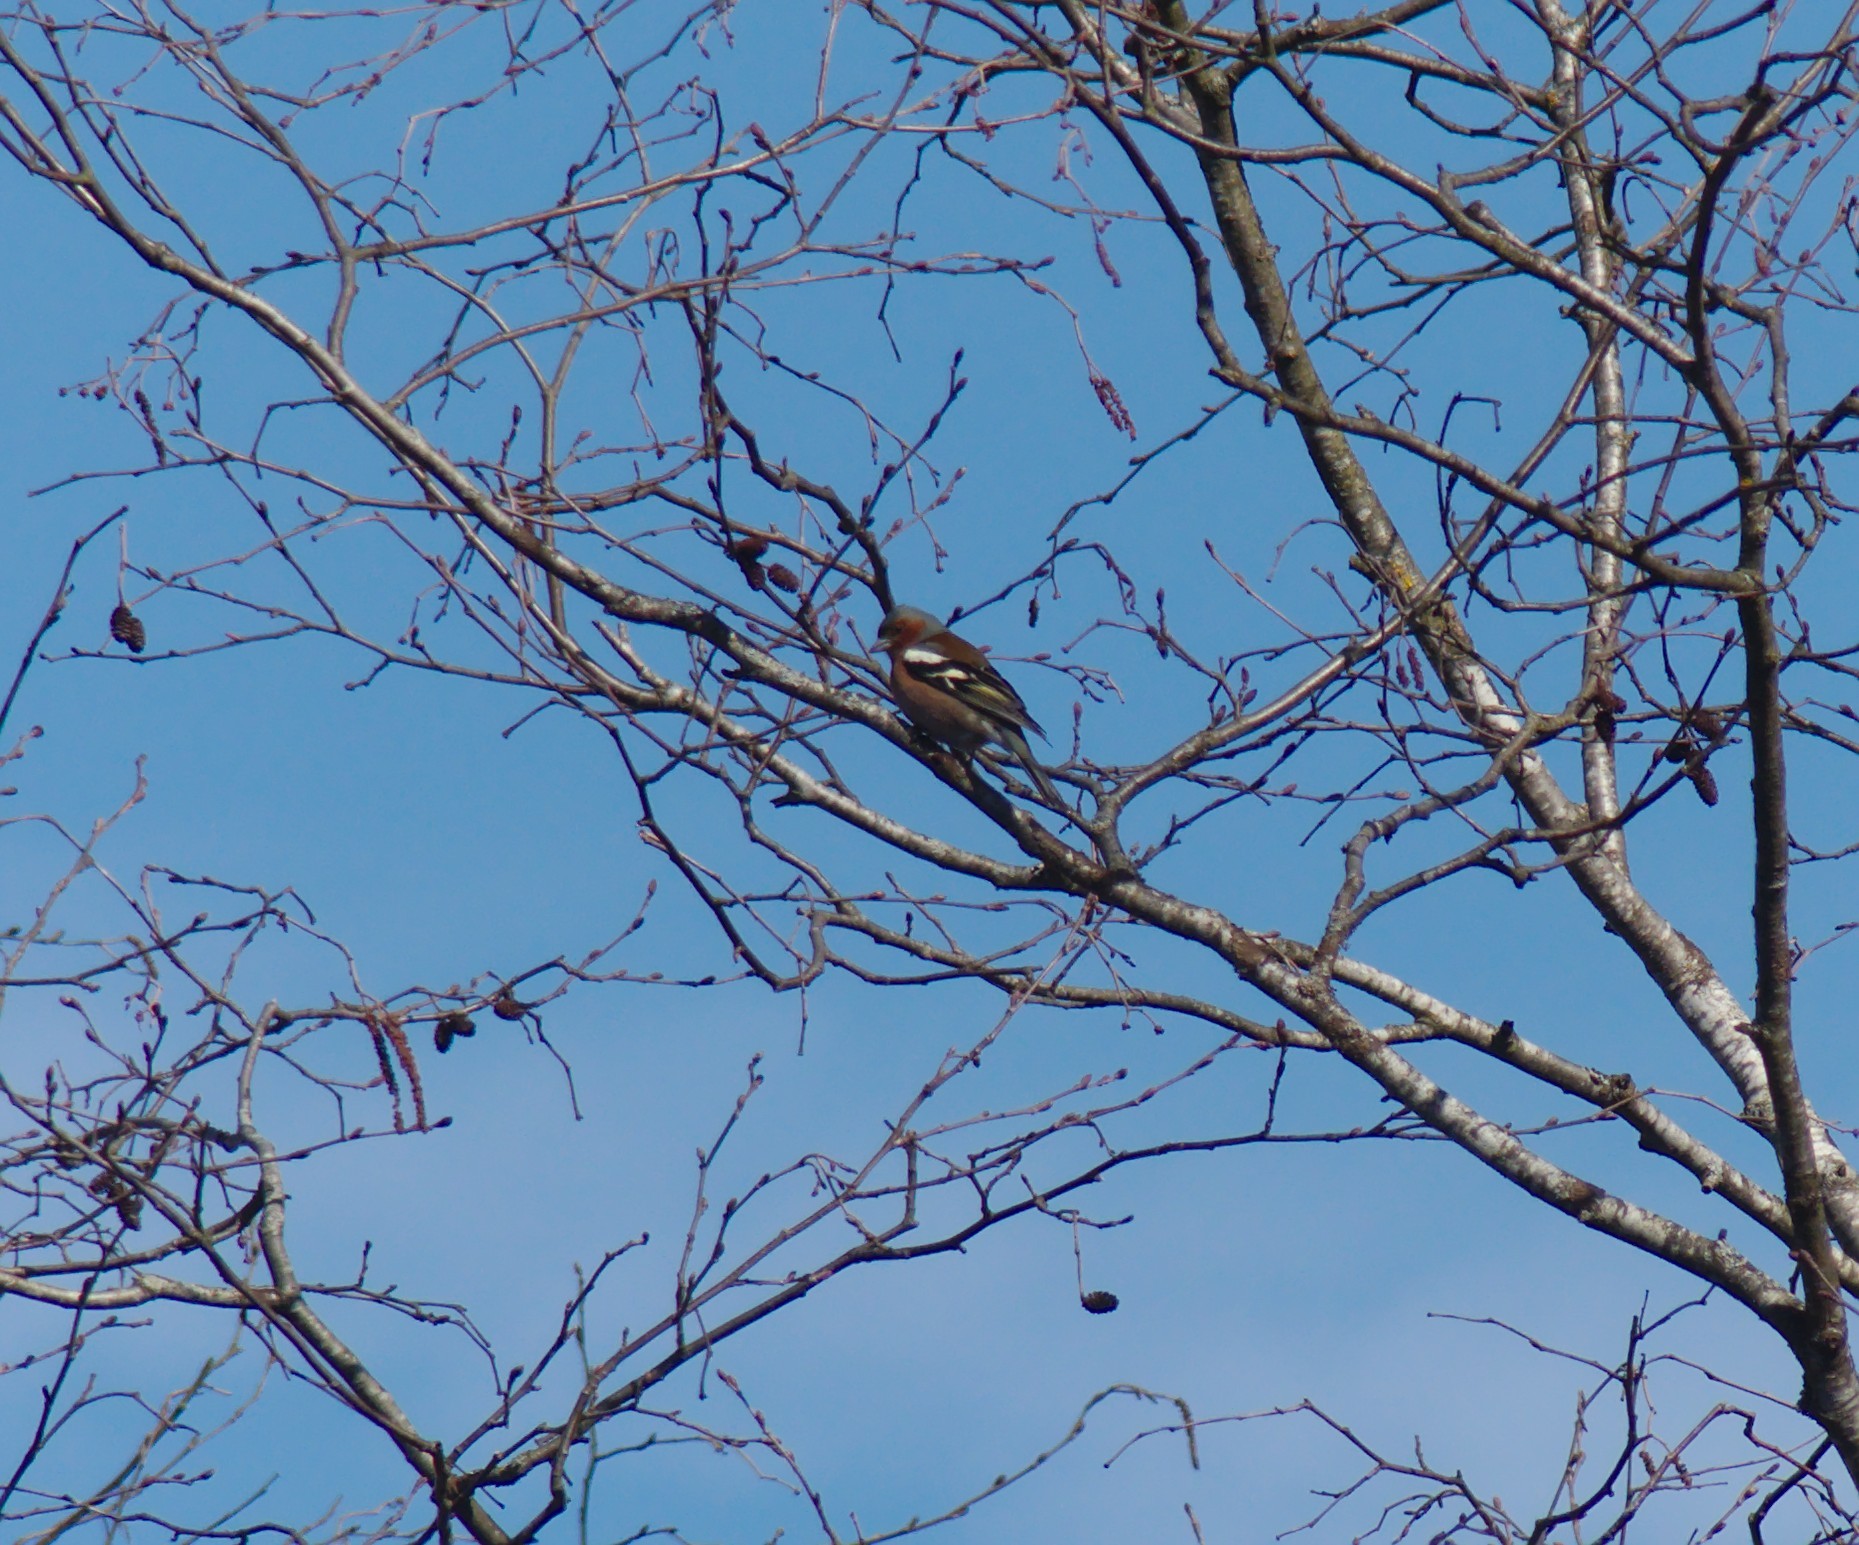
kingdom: Animalia
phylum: Chordata
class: Aves
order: Passeriformes
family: Fringillidae
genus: Fringilla
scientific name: Fringilla coelebs
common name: Common chaffinch
